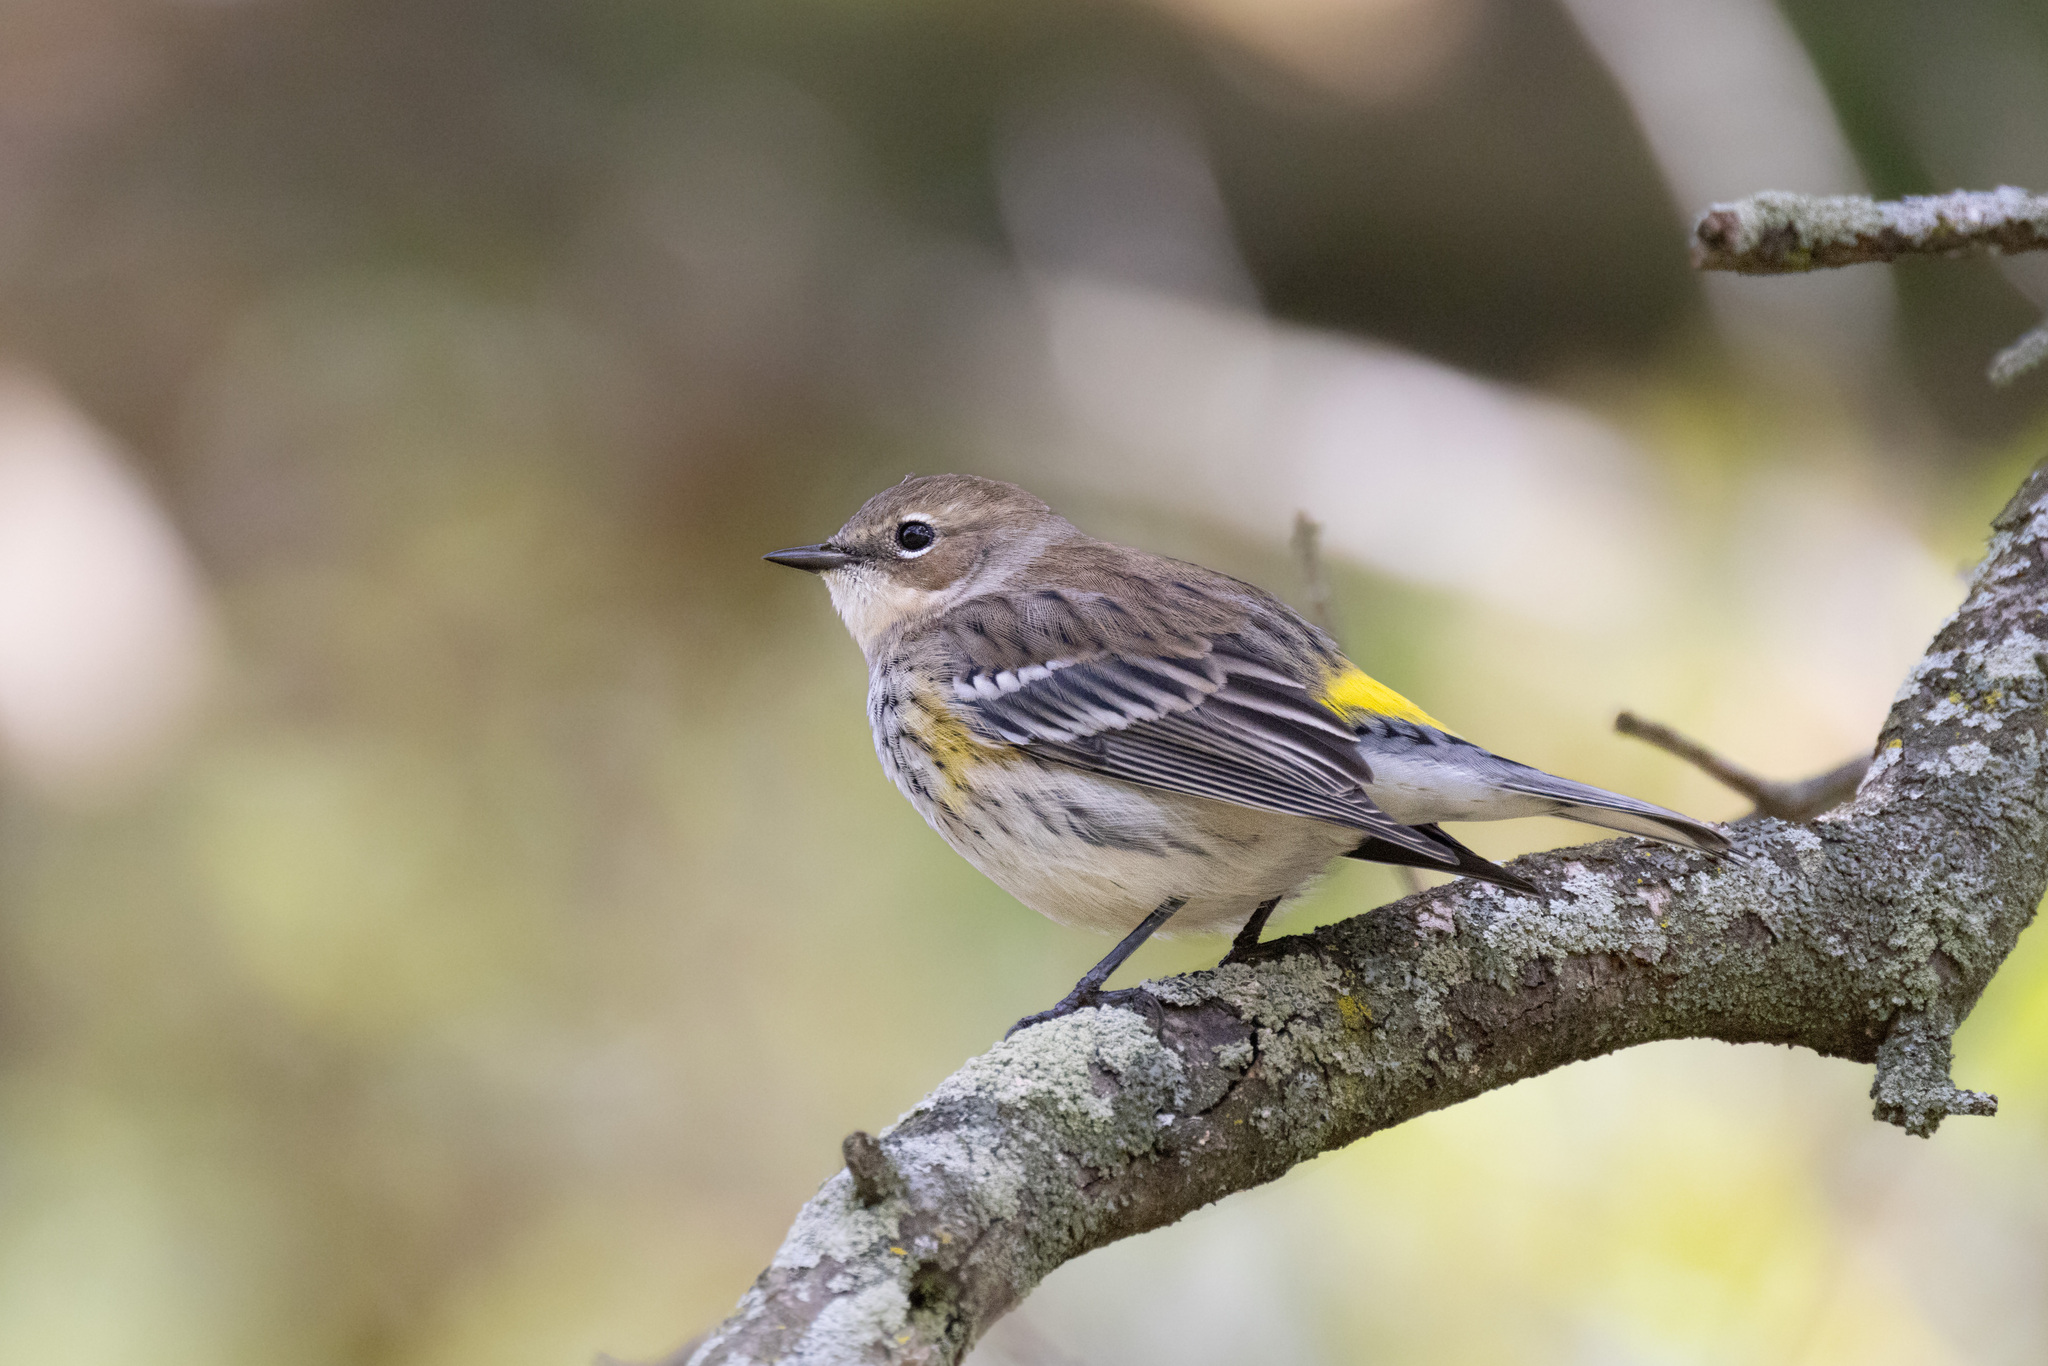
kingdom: Animalia
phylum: Chordata
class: Aves
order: Passeriformes
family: Parulidae
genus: Setophaga
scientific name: Setophaga coronata
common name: Myrtle warbler
